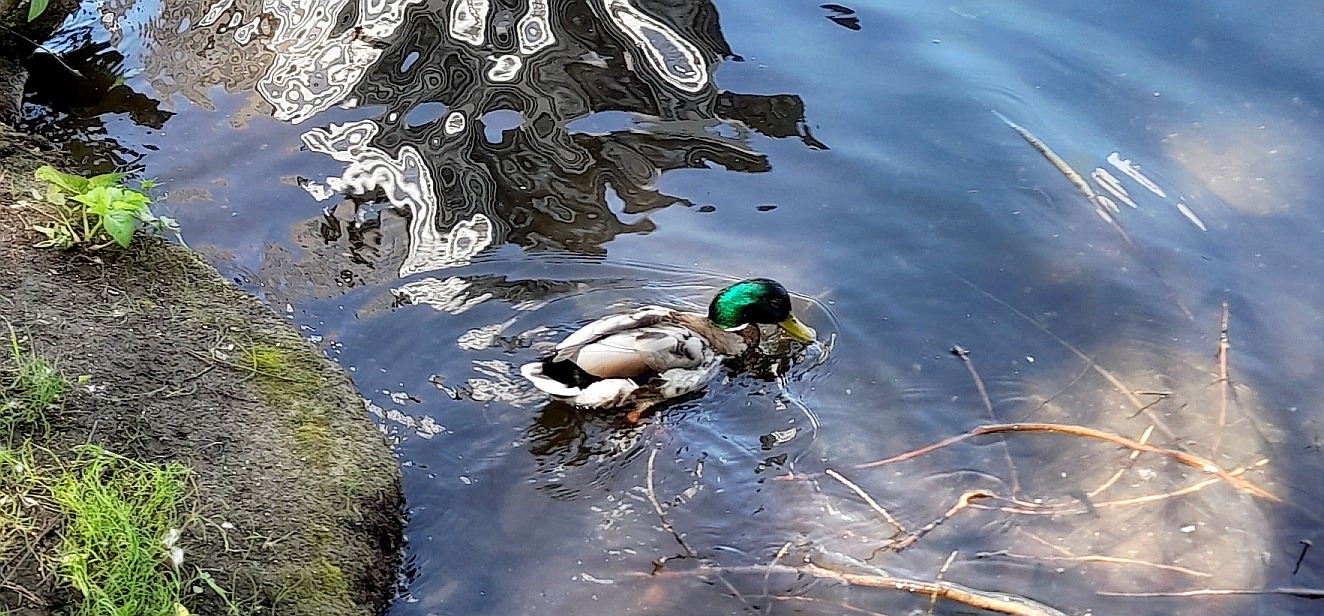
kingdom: Animalia
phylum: Chordata
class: Aves
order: Anseriformes
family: Anatidae
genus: Anas
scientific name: Anas platyrhynchos
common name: Mallard
